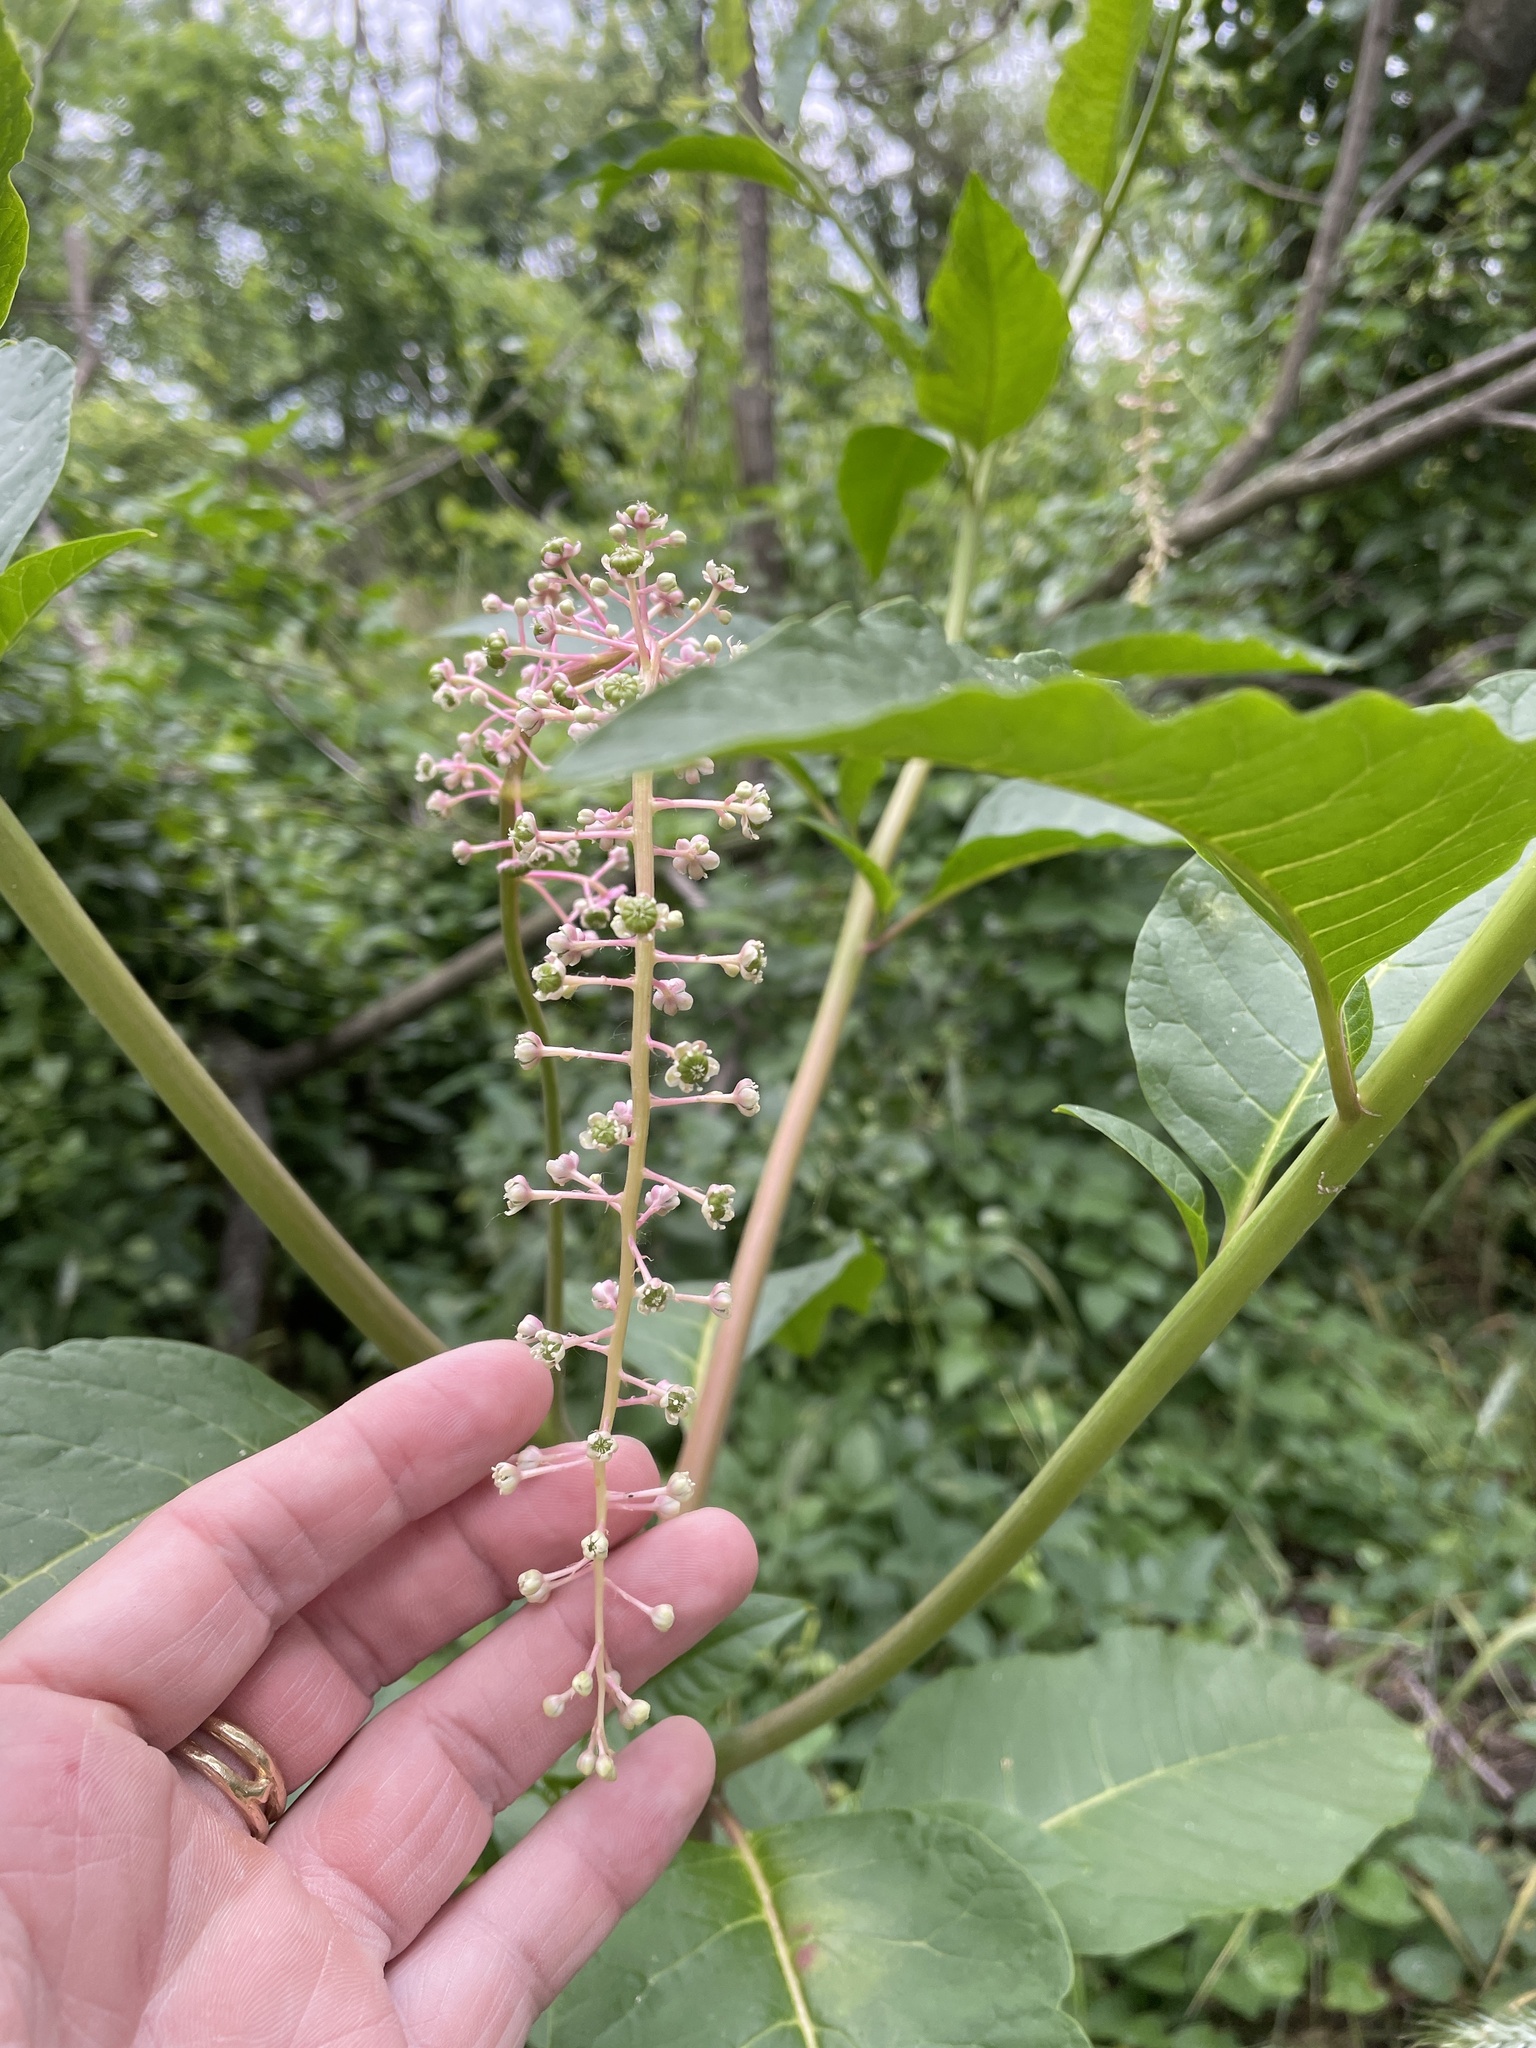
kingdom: Plantae
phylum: Tracheophyta
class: Magnoliopsida
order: Caryophyllales
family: Phytolaccaceae
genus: Phytolacca
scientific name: Phytolacca americana
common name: American pokeweed
